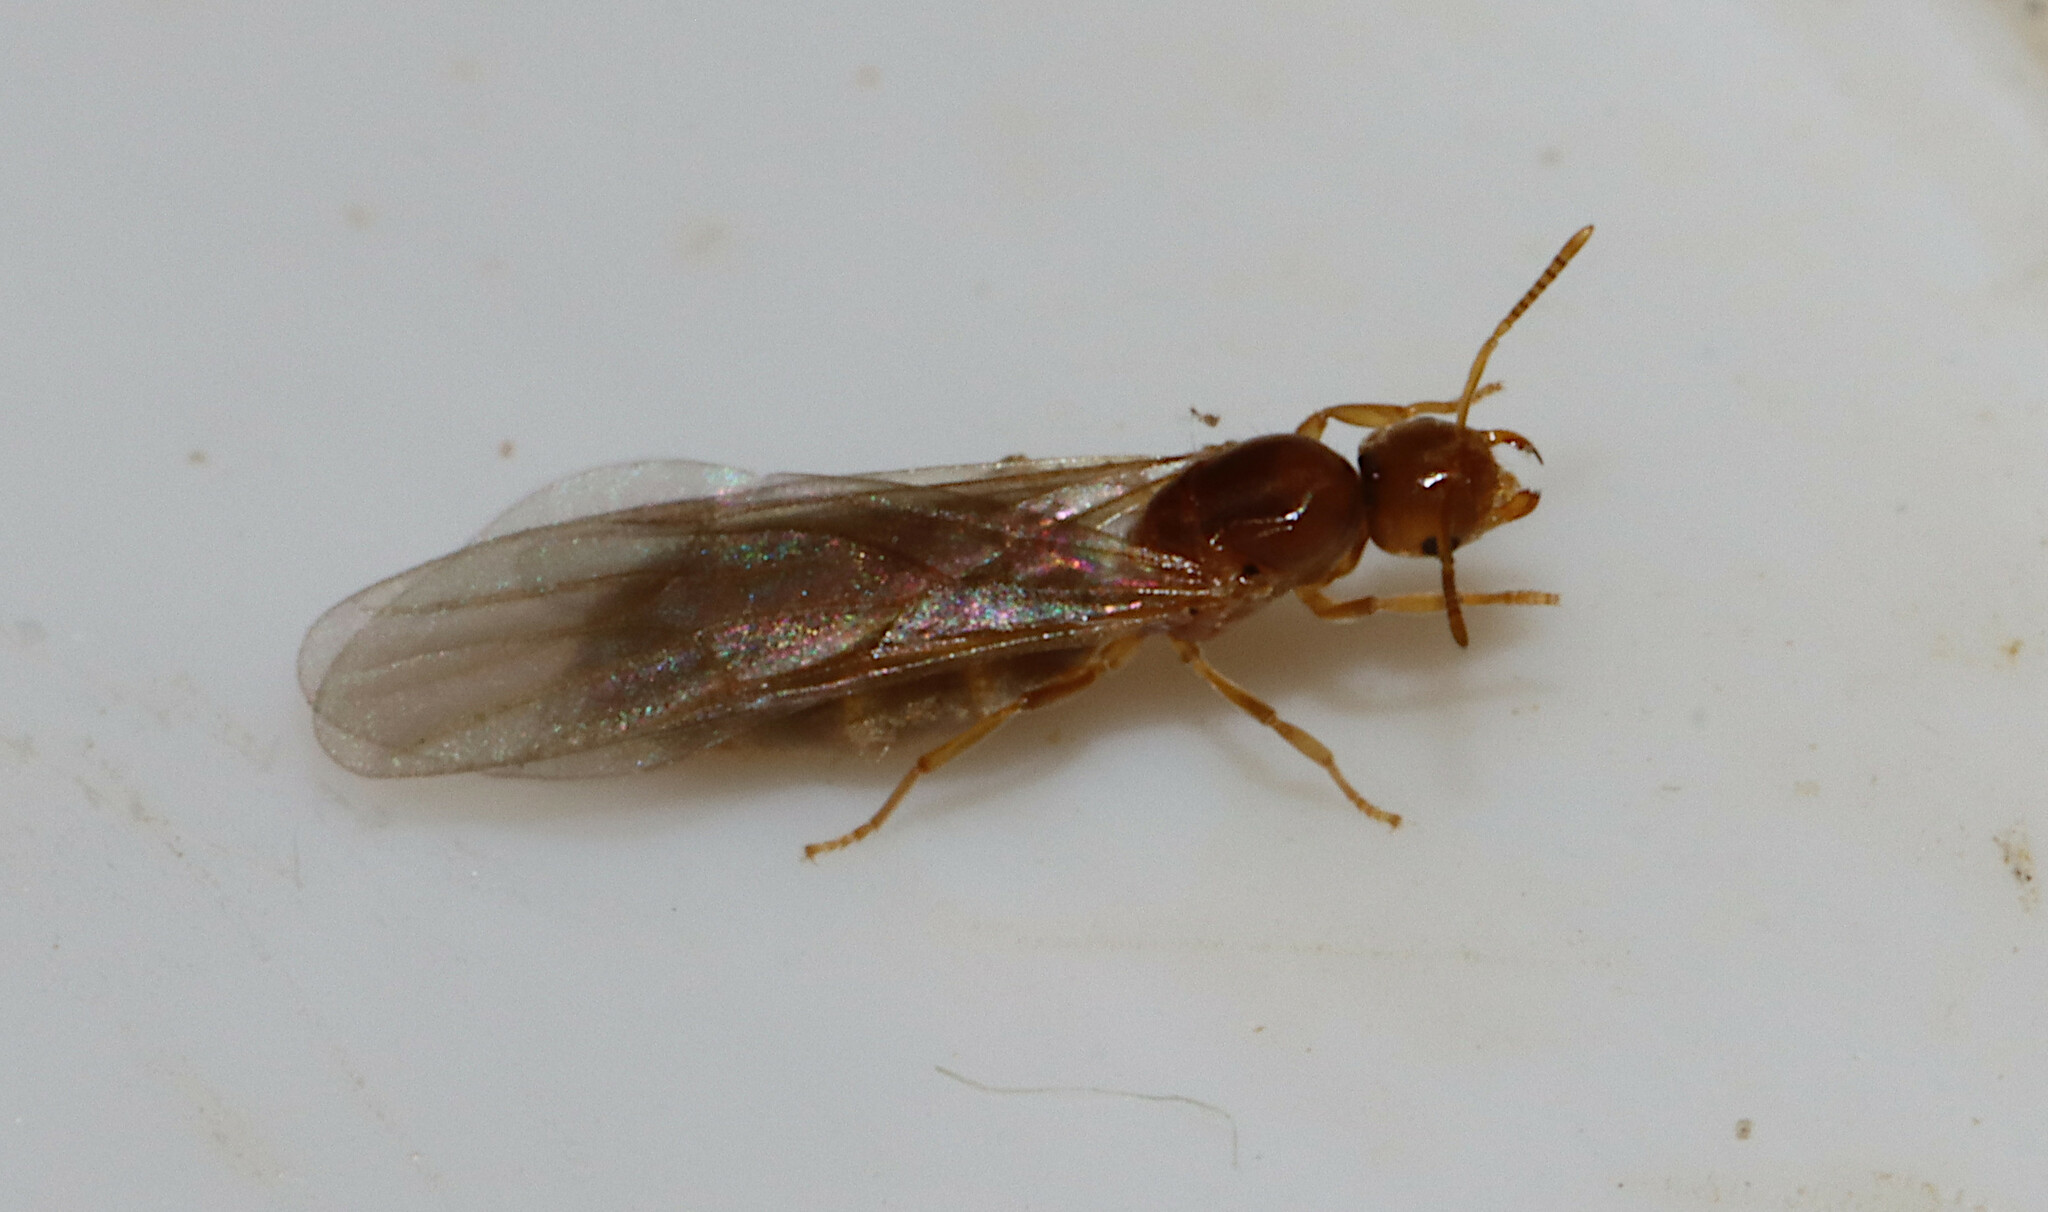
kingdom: Animalia
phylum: Arthropoda
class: Insecta
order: Hymenoptera
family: Formicidae
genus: Brachymyrmex
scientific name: Brachymyrmex depilis
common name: Hairless rover ant
